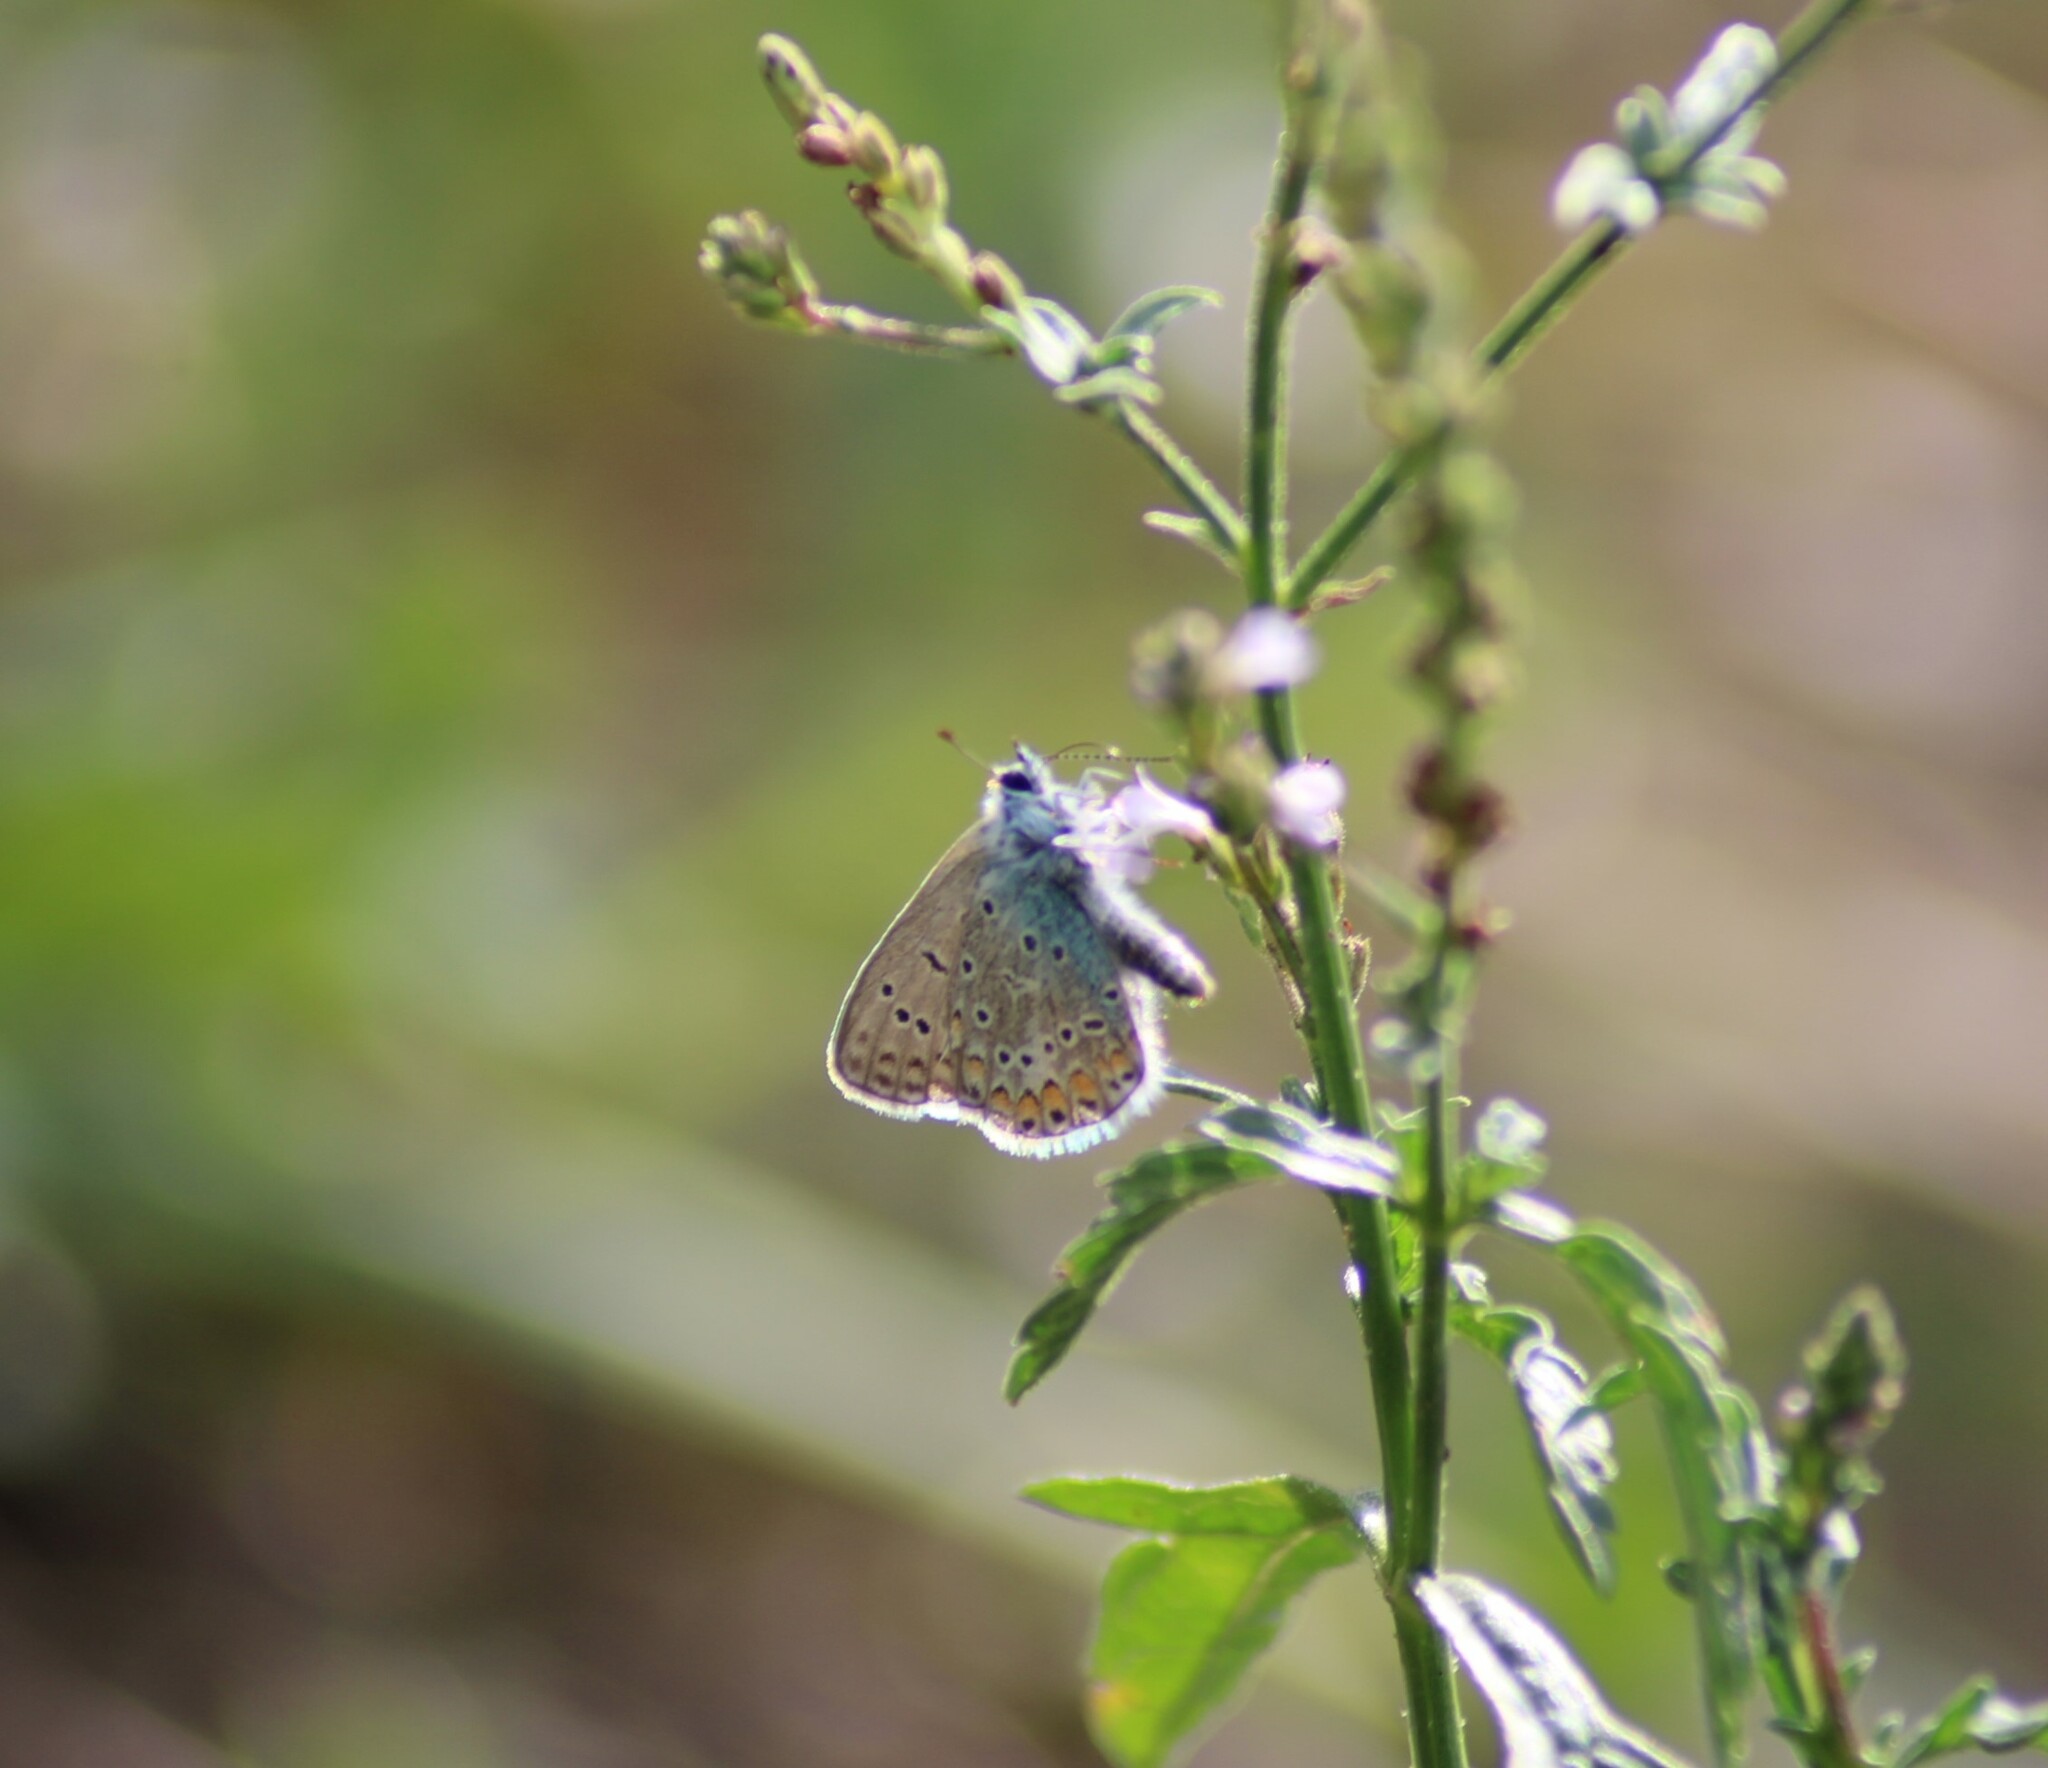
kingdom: Animalia
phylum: Arthropoda
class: Insecta
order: Lepidoptera
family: Lycaenidae
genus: Polyommatus
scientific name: Polyommatus icarus
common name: Common blue
